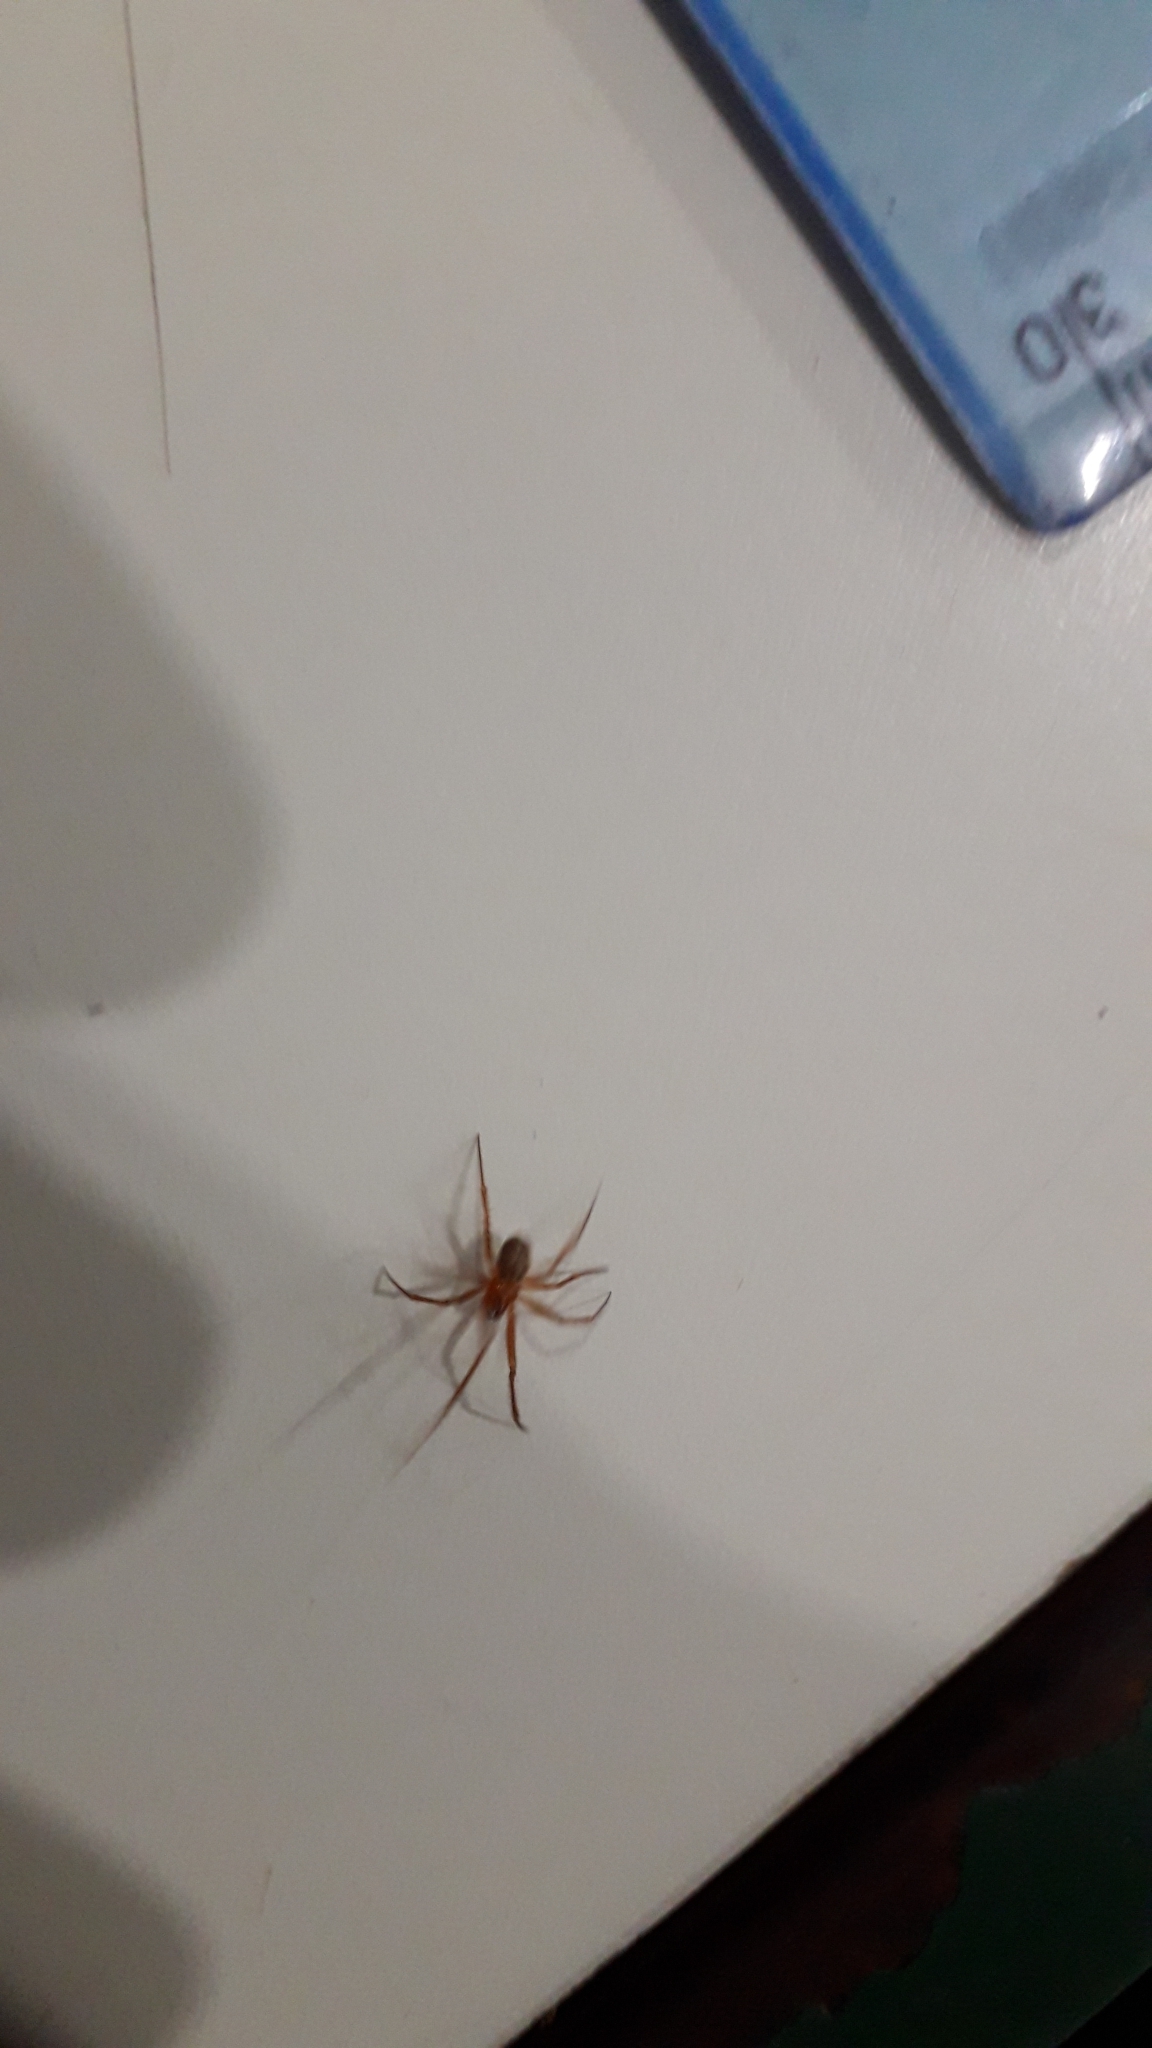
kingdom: Animalia
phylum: Arthropoda
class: Arachnida
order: Araneae
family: Theridiidae
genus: Nesticodes
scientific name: Nesticodes rufipes
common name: Cobweb spiders
